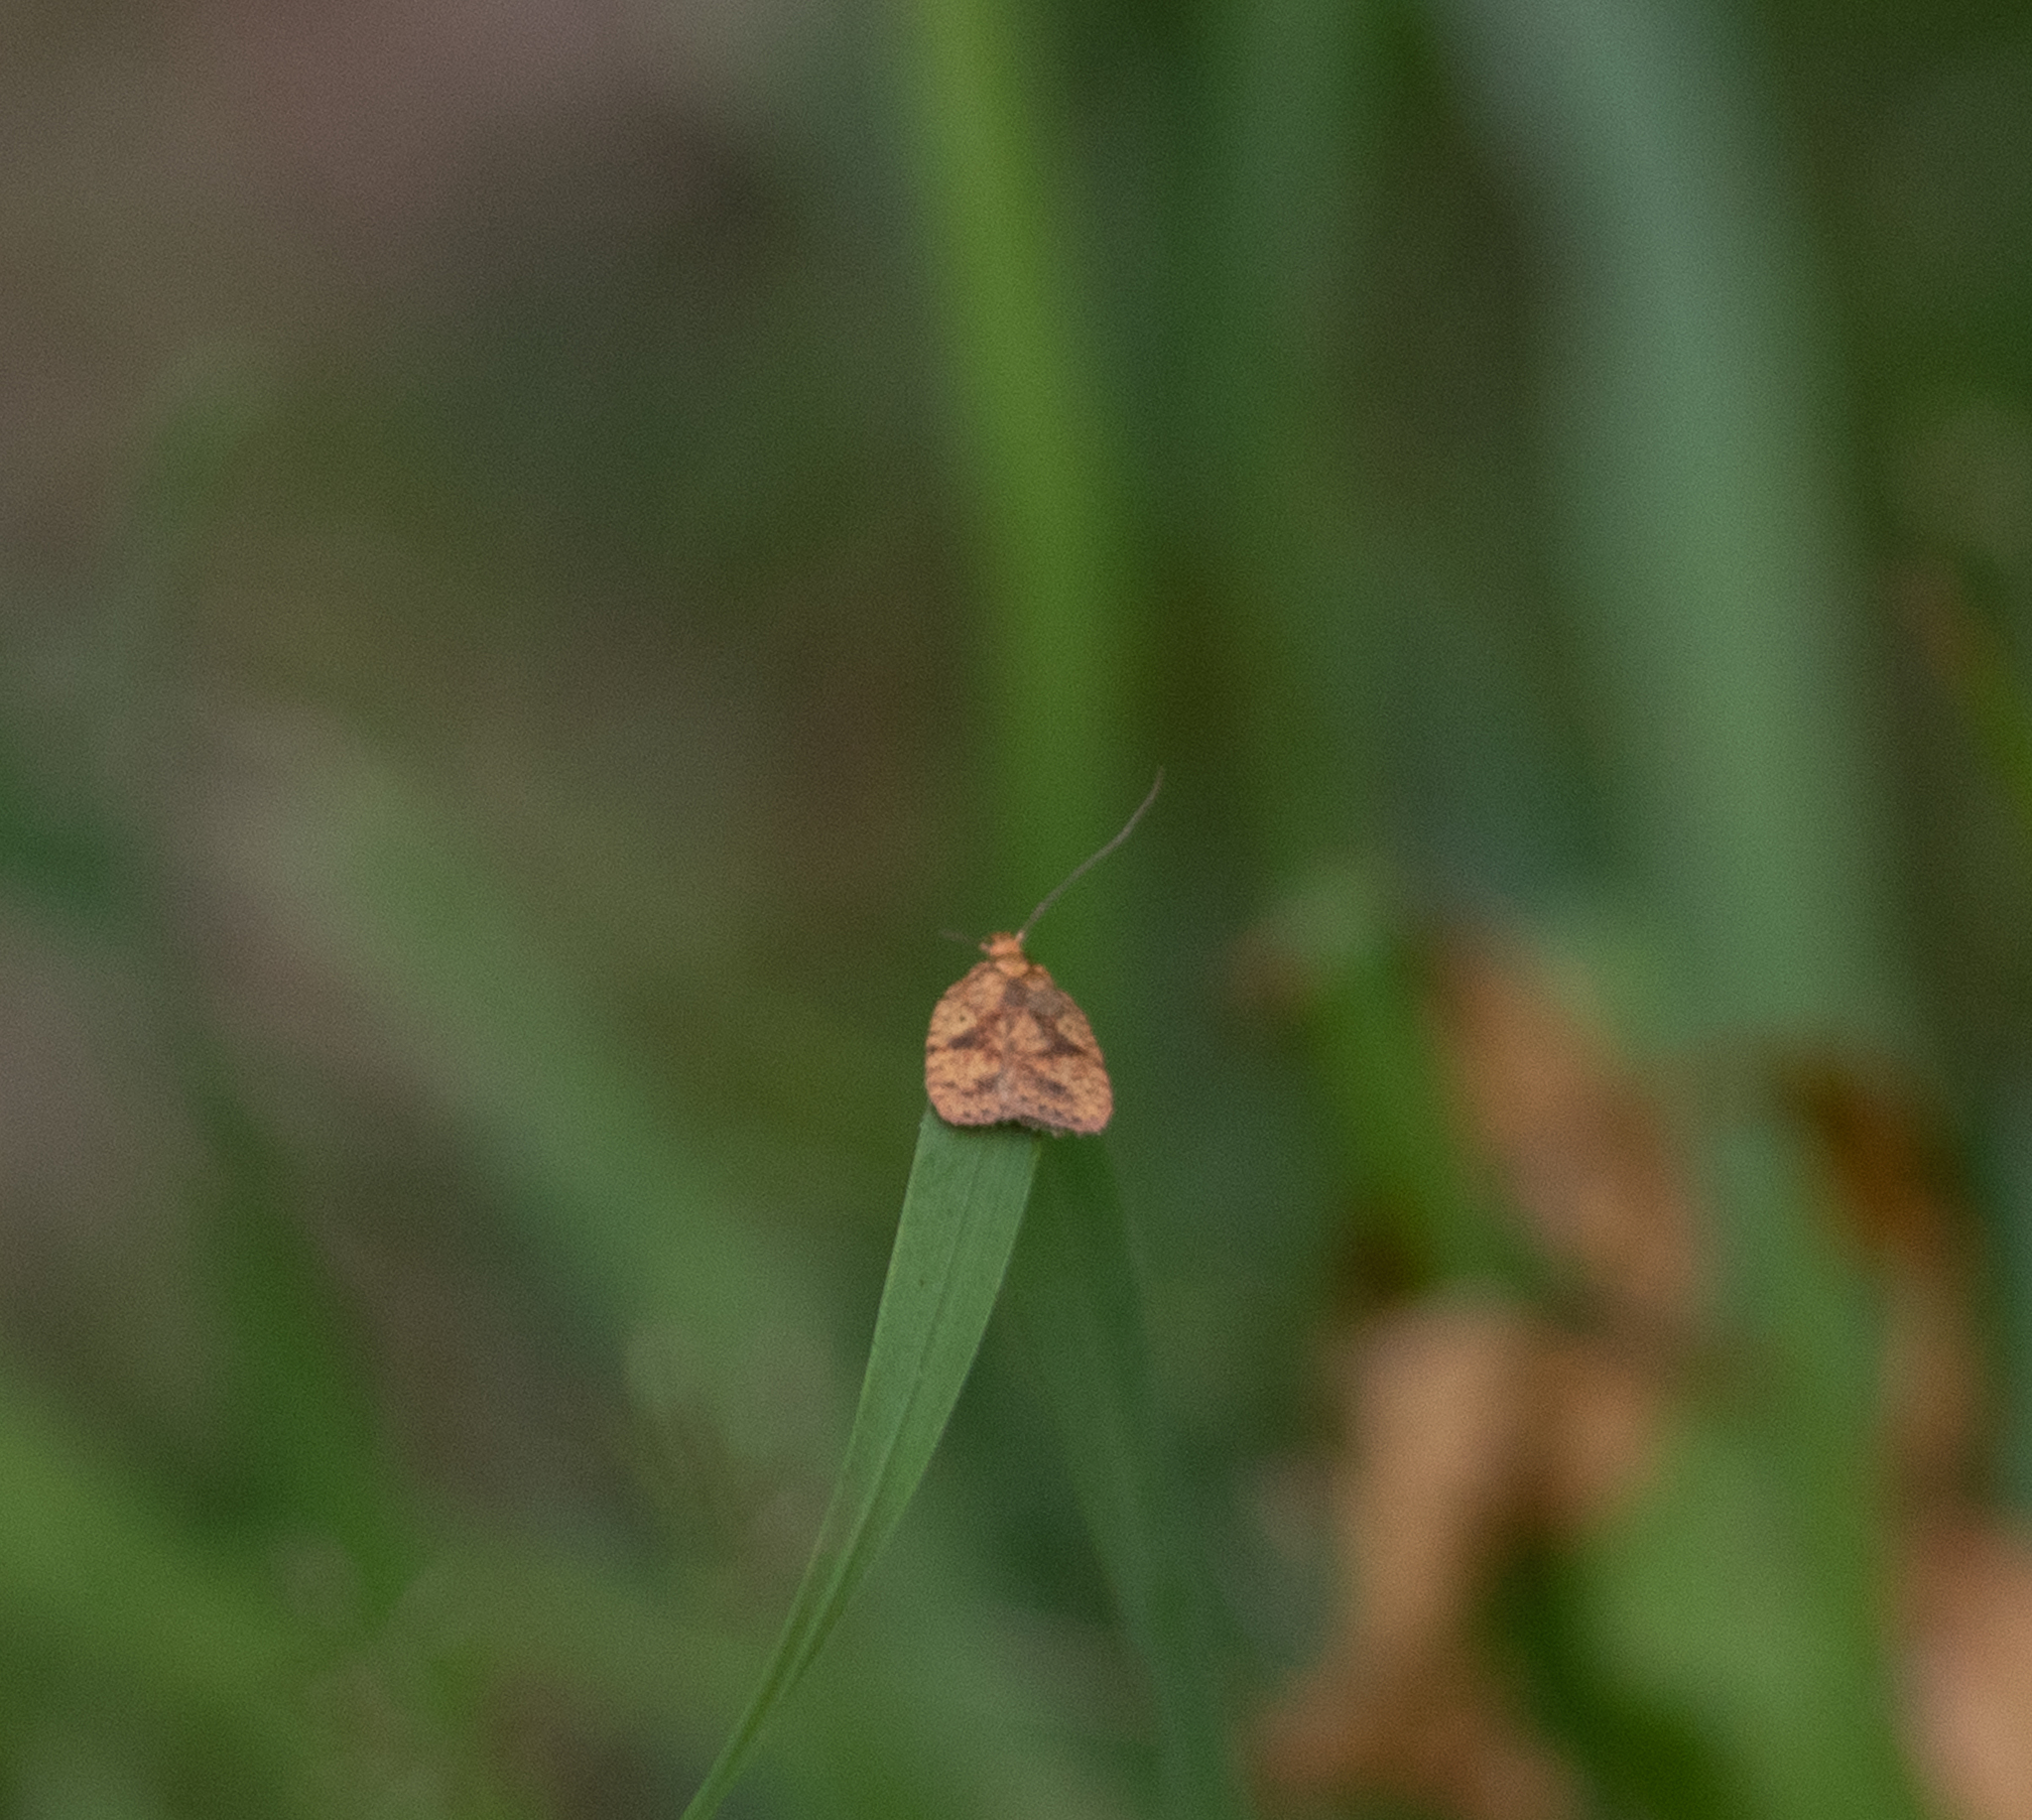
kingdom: Animalia
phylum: Arthropoda
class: Insecta
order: Lepidoptera
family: Depressariidae
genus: Agonopterix
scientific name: Agonopterix robiniella
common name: Four-dotted agonopterix moth
